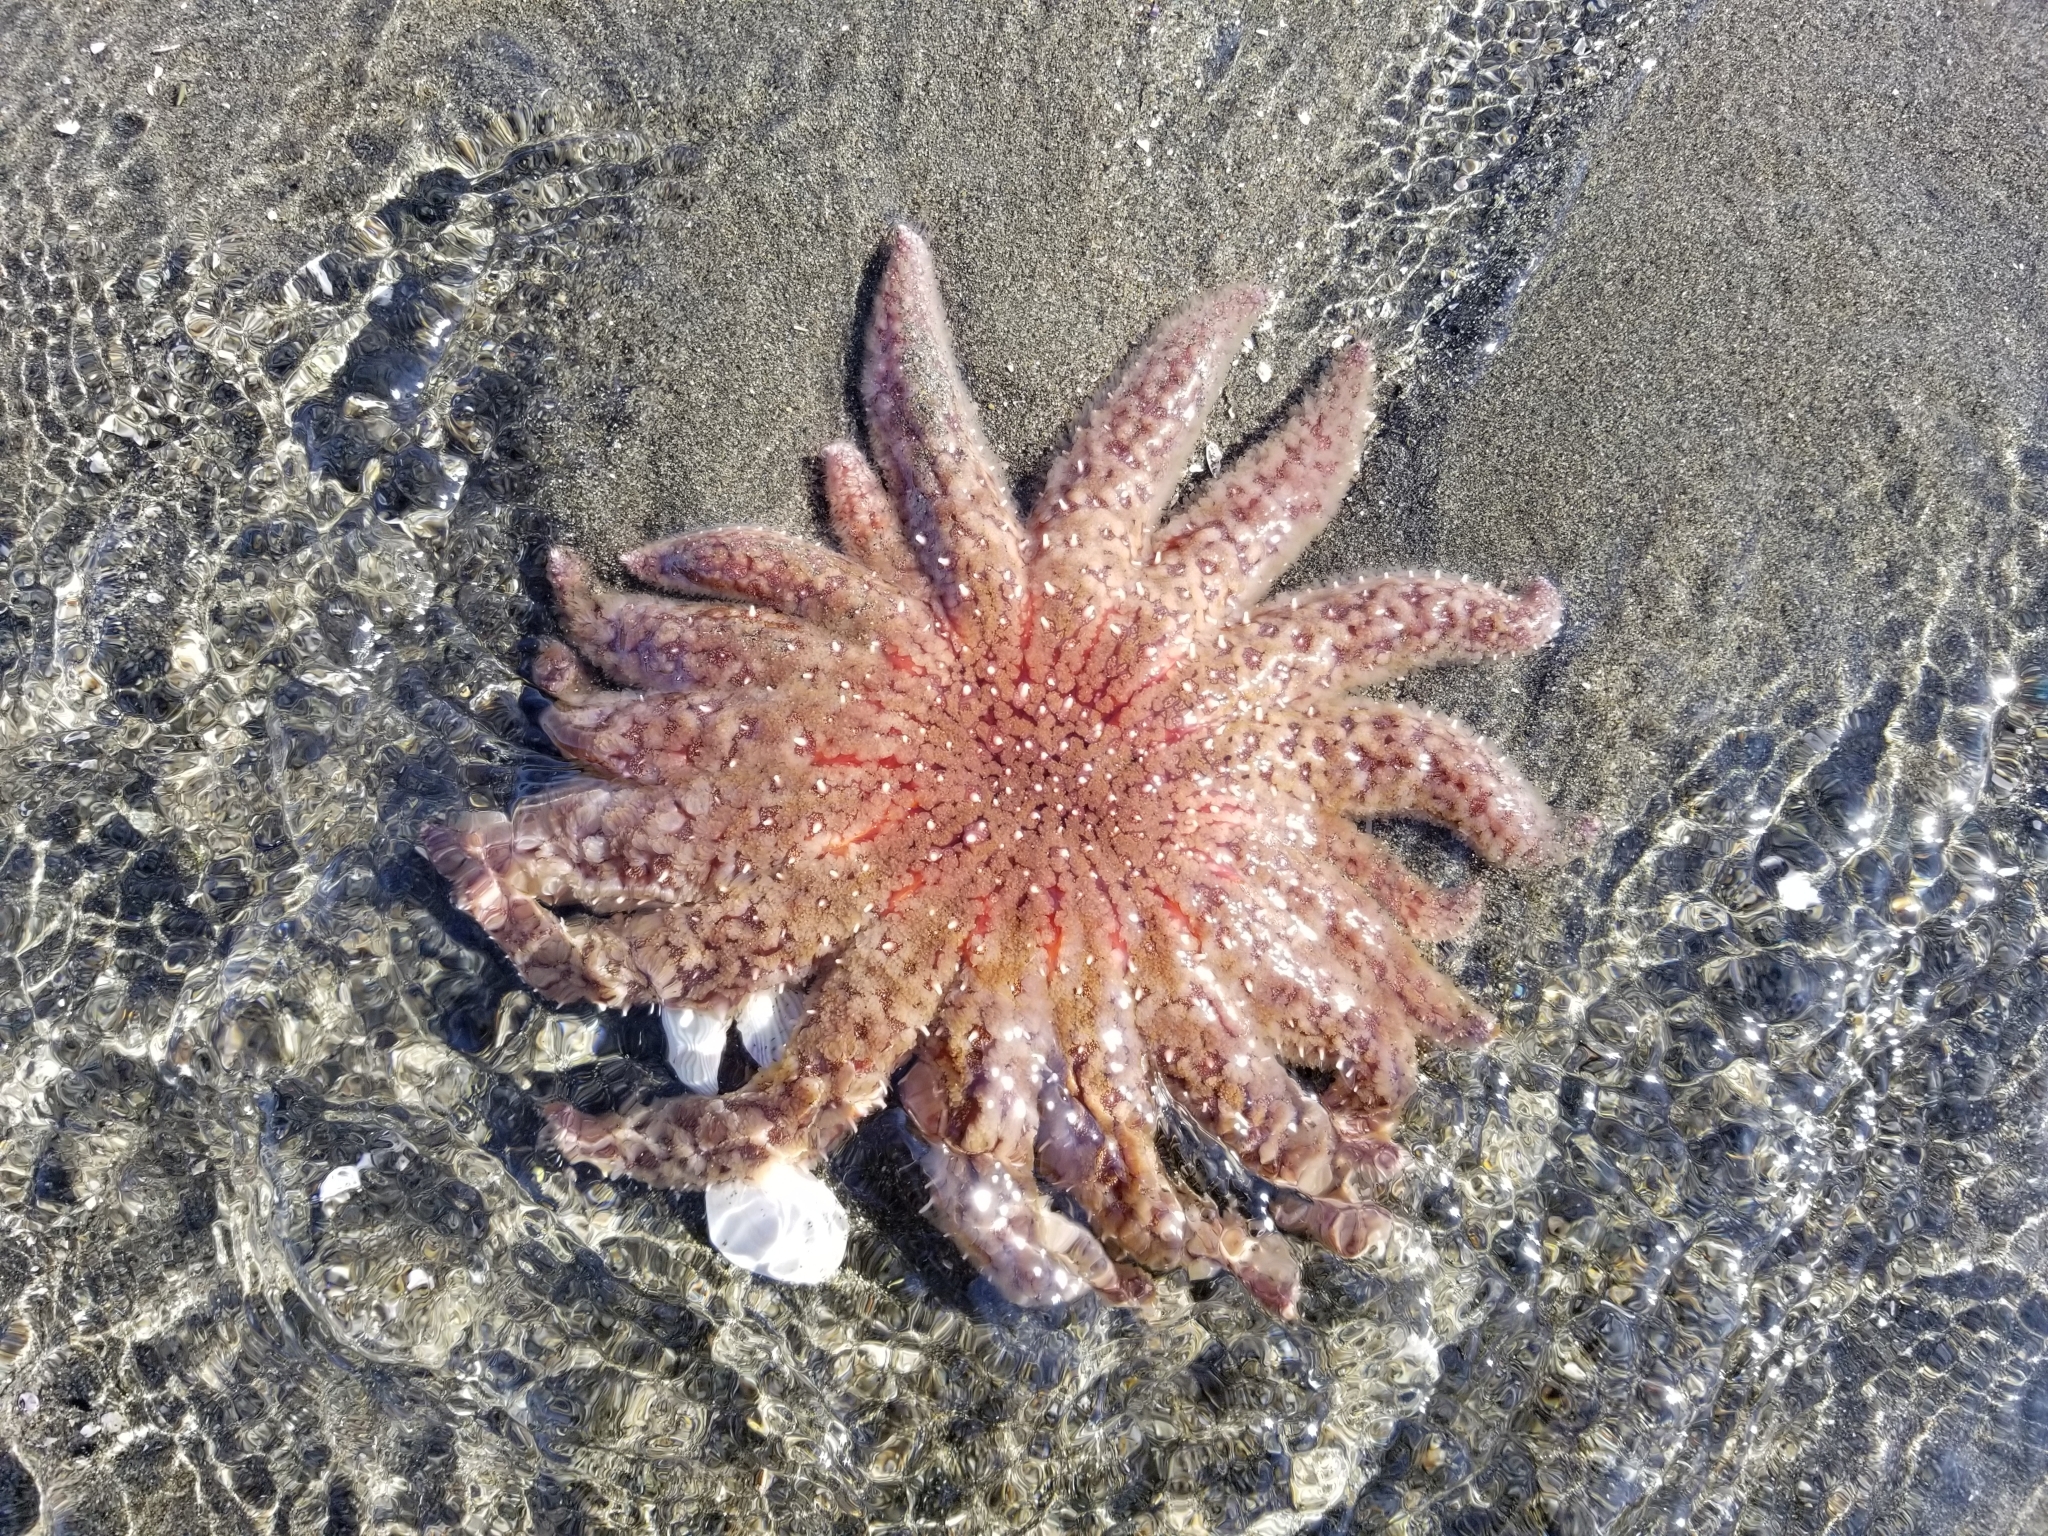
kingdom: Animalia
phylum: Echinodermata
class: Asteroidea
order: Forcipulatida
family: Asteriidae
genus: Pycnopodia
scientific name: Pycnopodia helianthoides
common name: Rag mop
